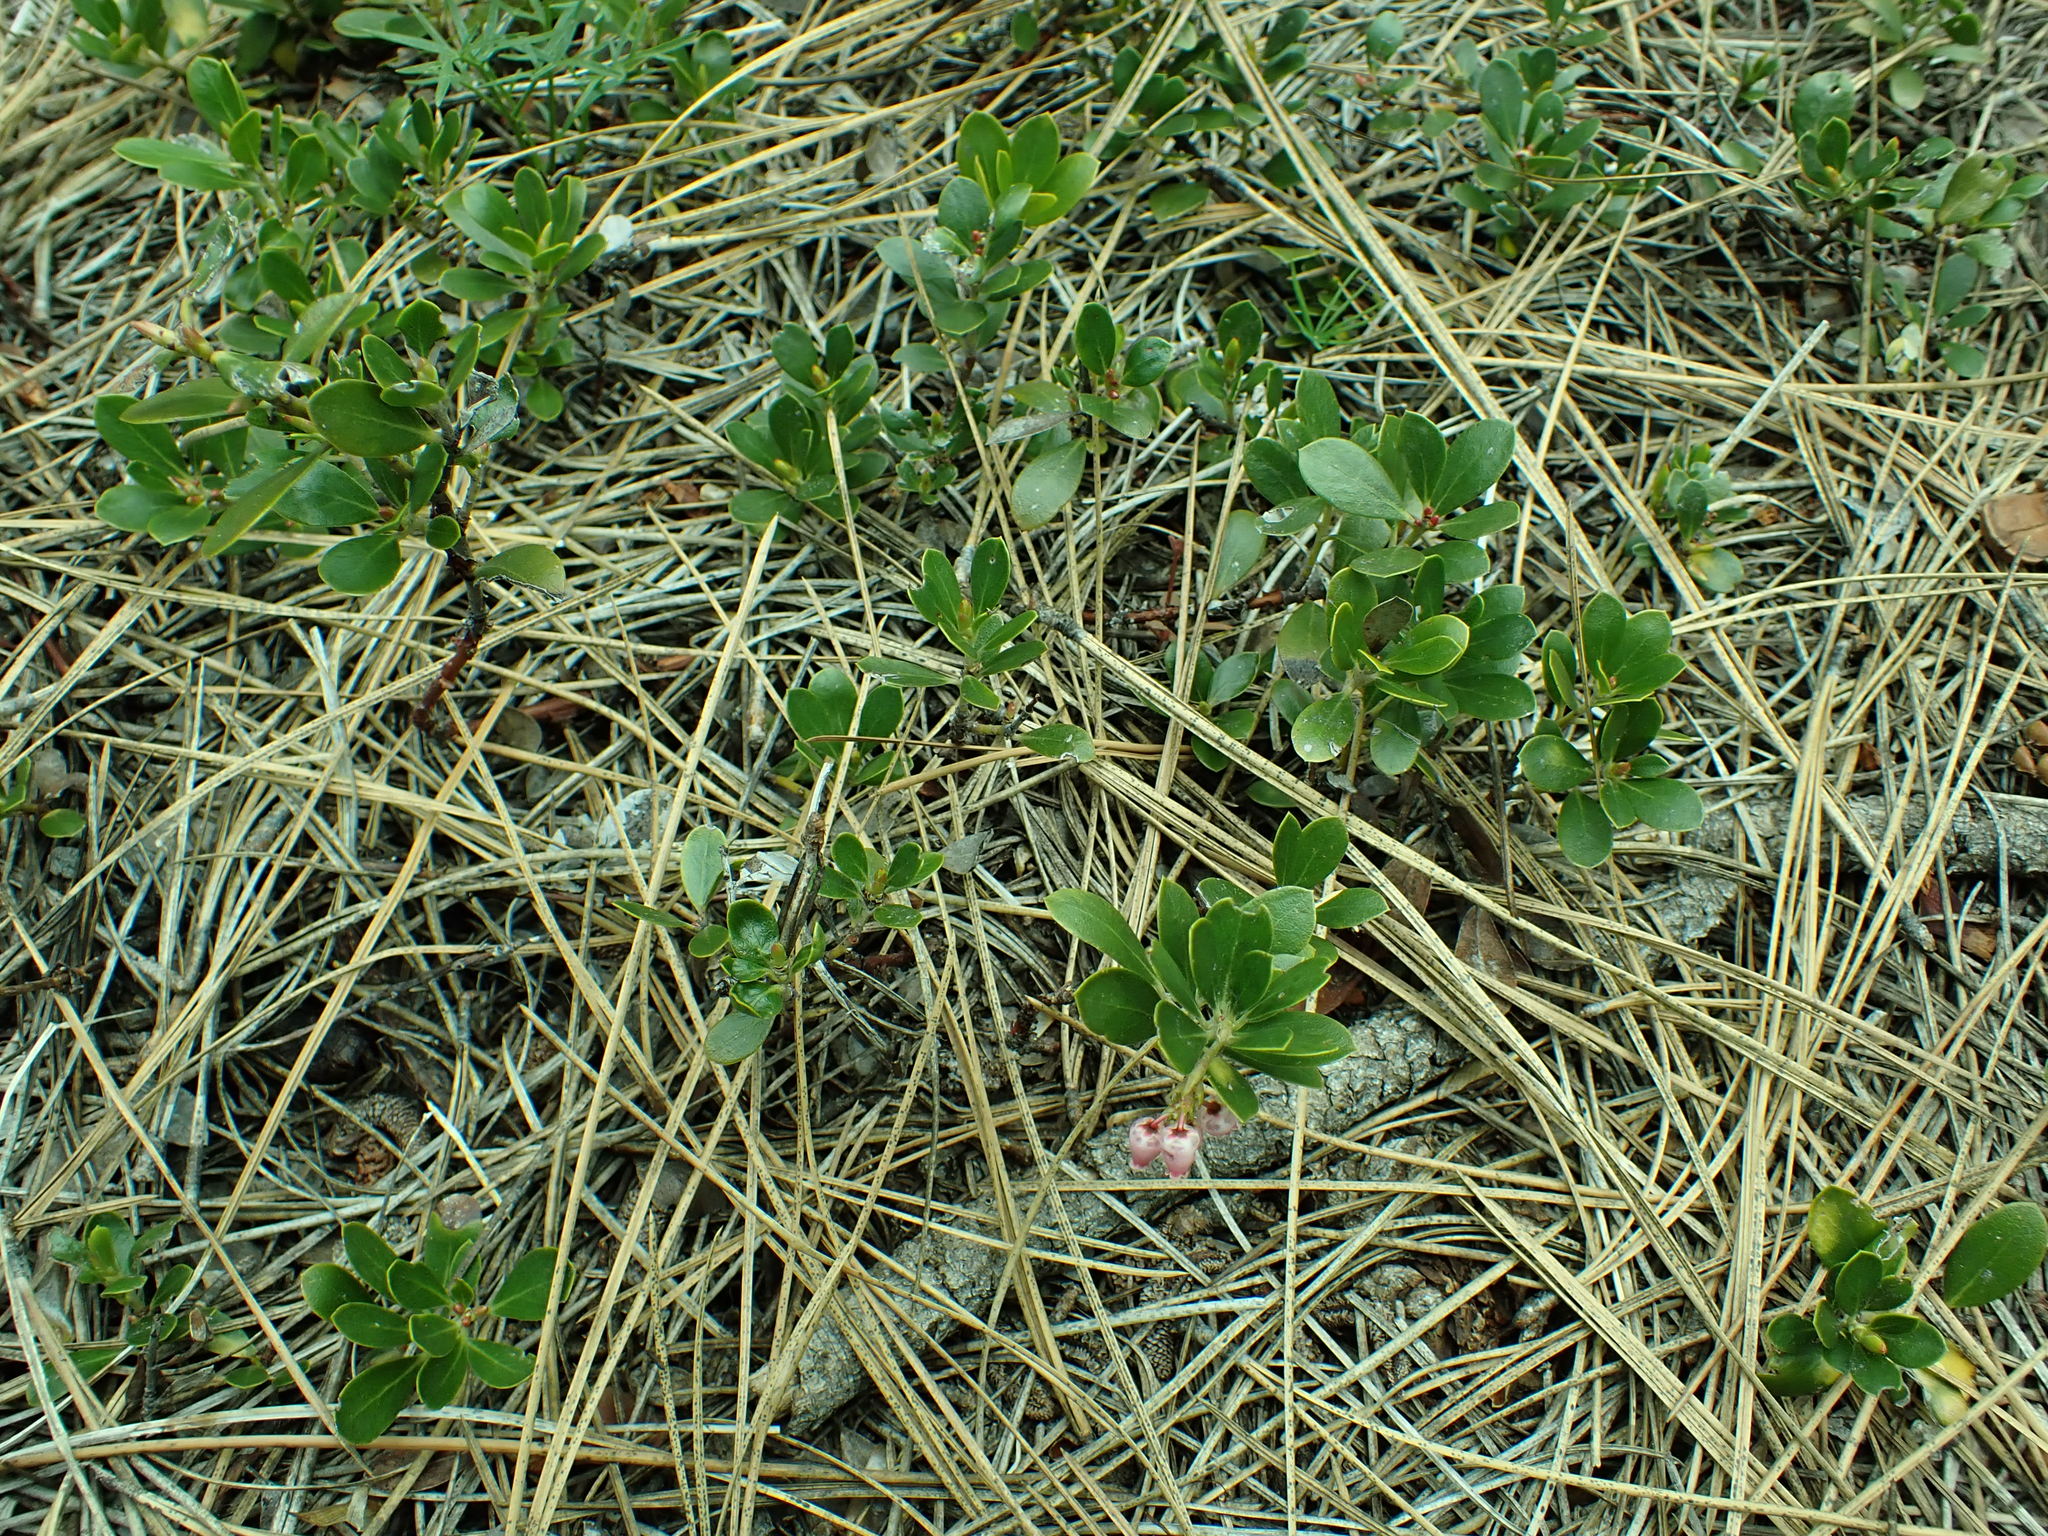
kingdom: Plantae
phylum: Tracheophyta
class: Magnoliopsida
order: Ericales
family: Ericaceae
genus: Arctostaphylos
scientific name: Arctostaphylos uva-ursi
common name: Bearberry
